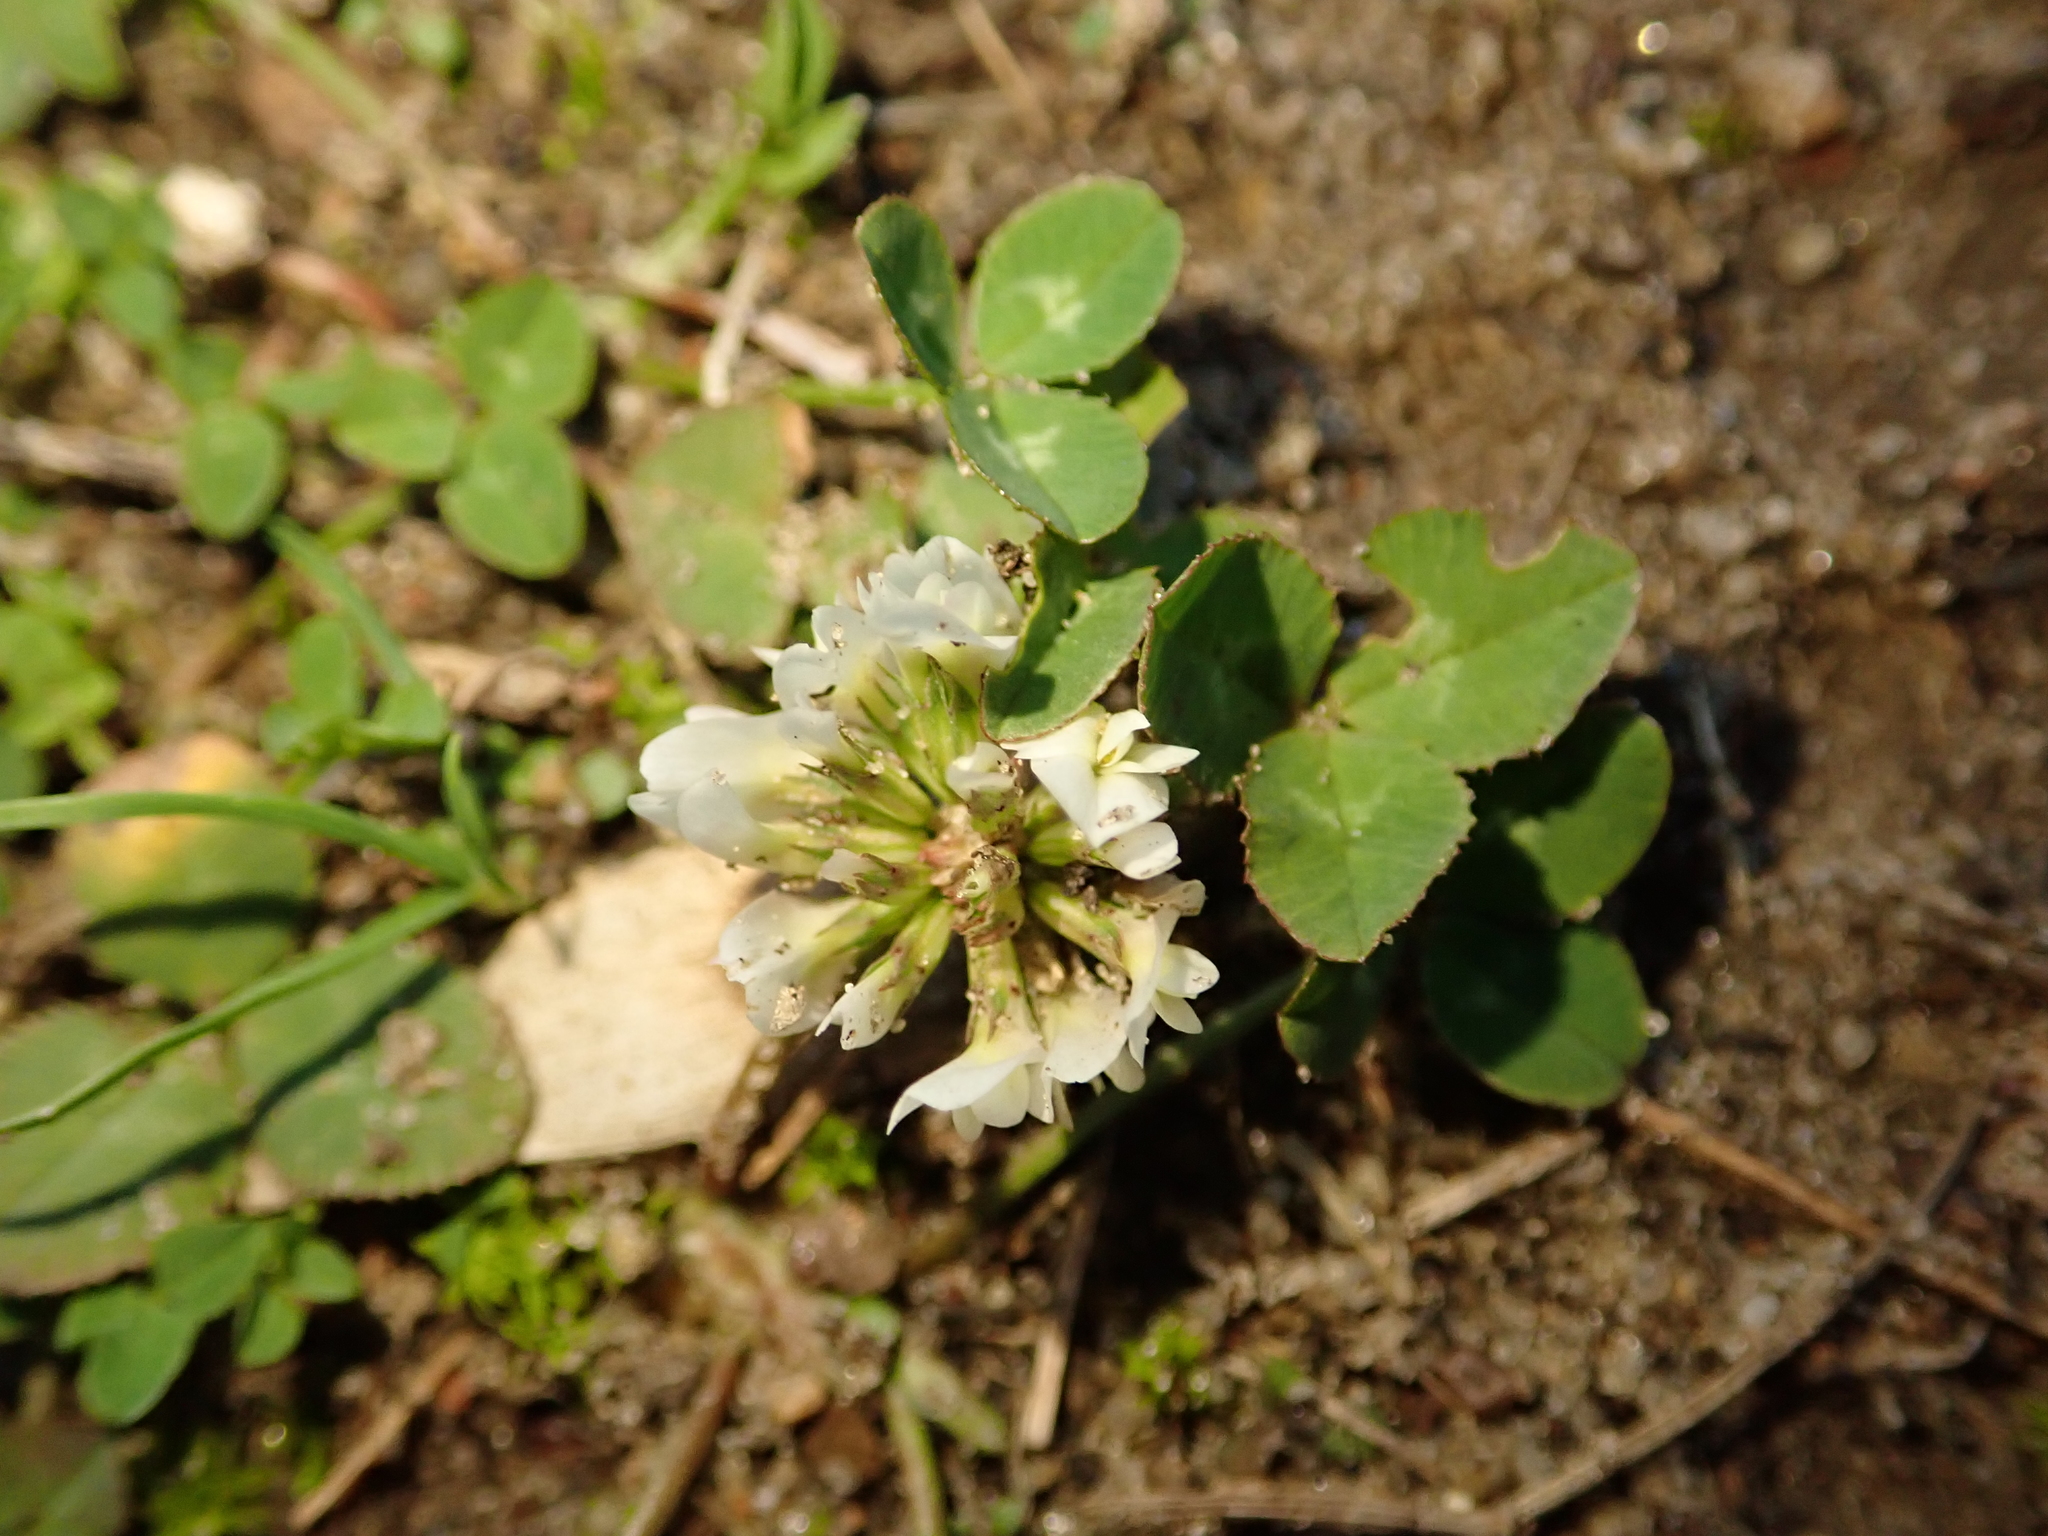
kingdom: Plantae
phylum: Tracheophyta
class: Magnoliopsida
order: Fabales
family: Fabaceae
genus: Trifolium
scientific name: Trifolium repens
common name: White clover
